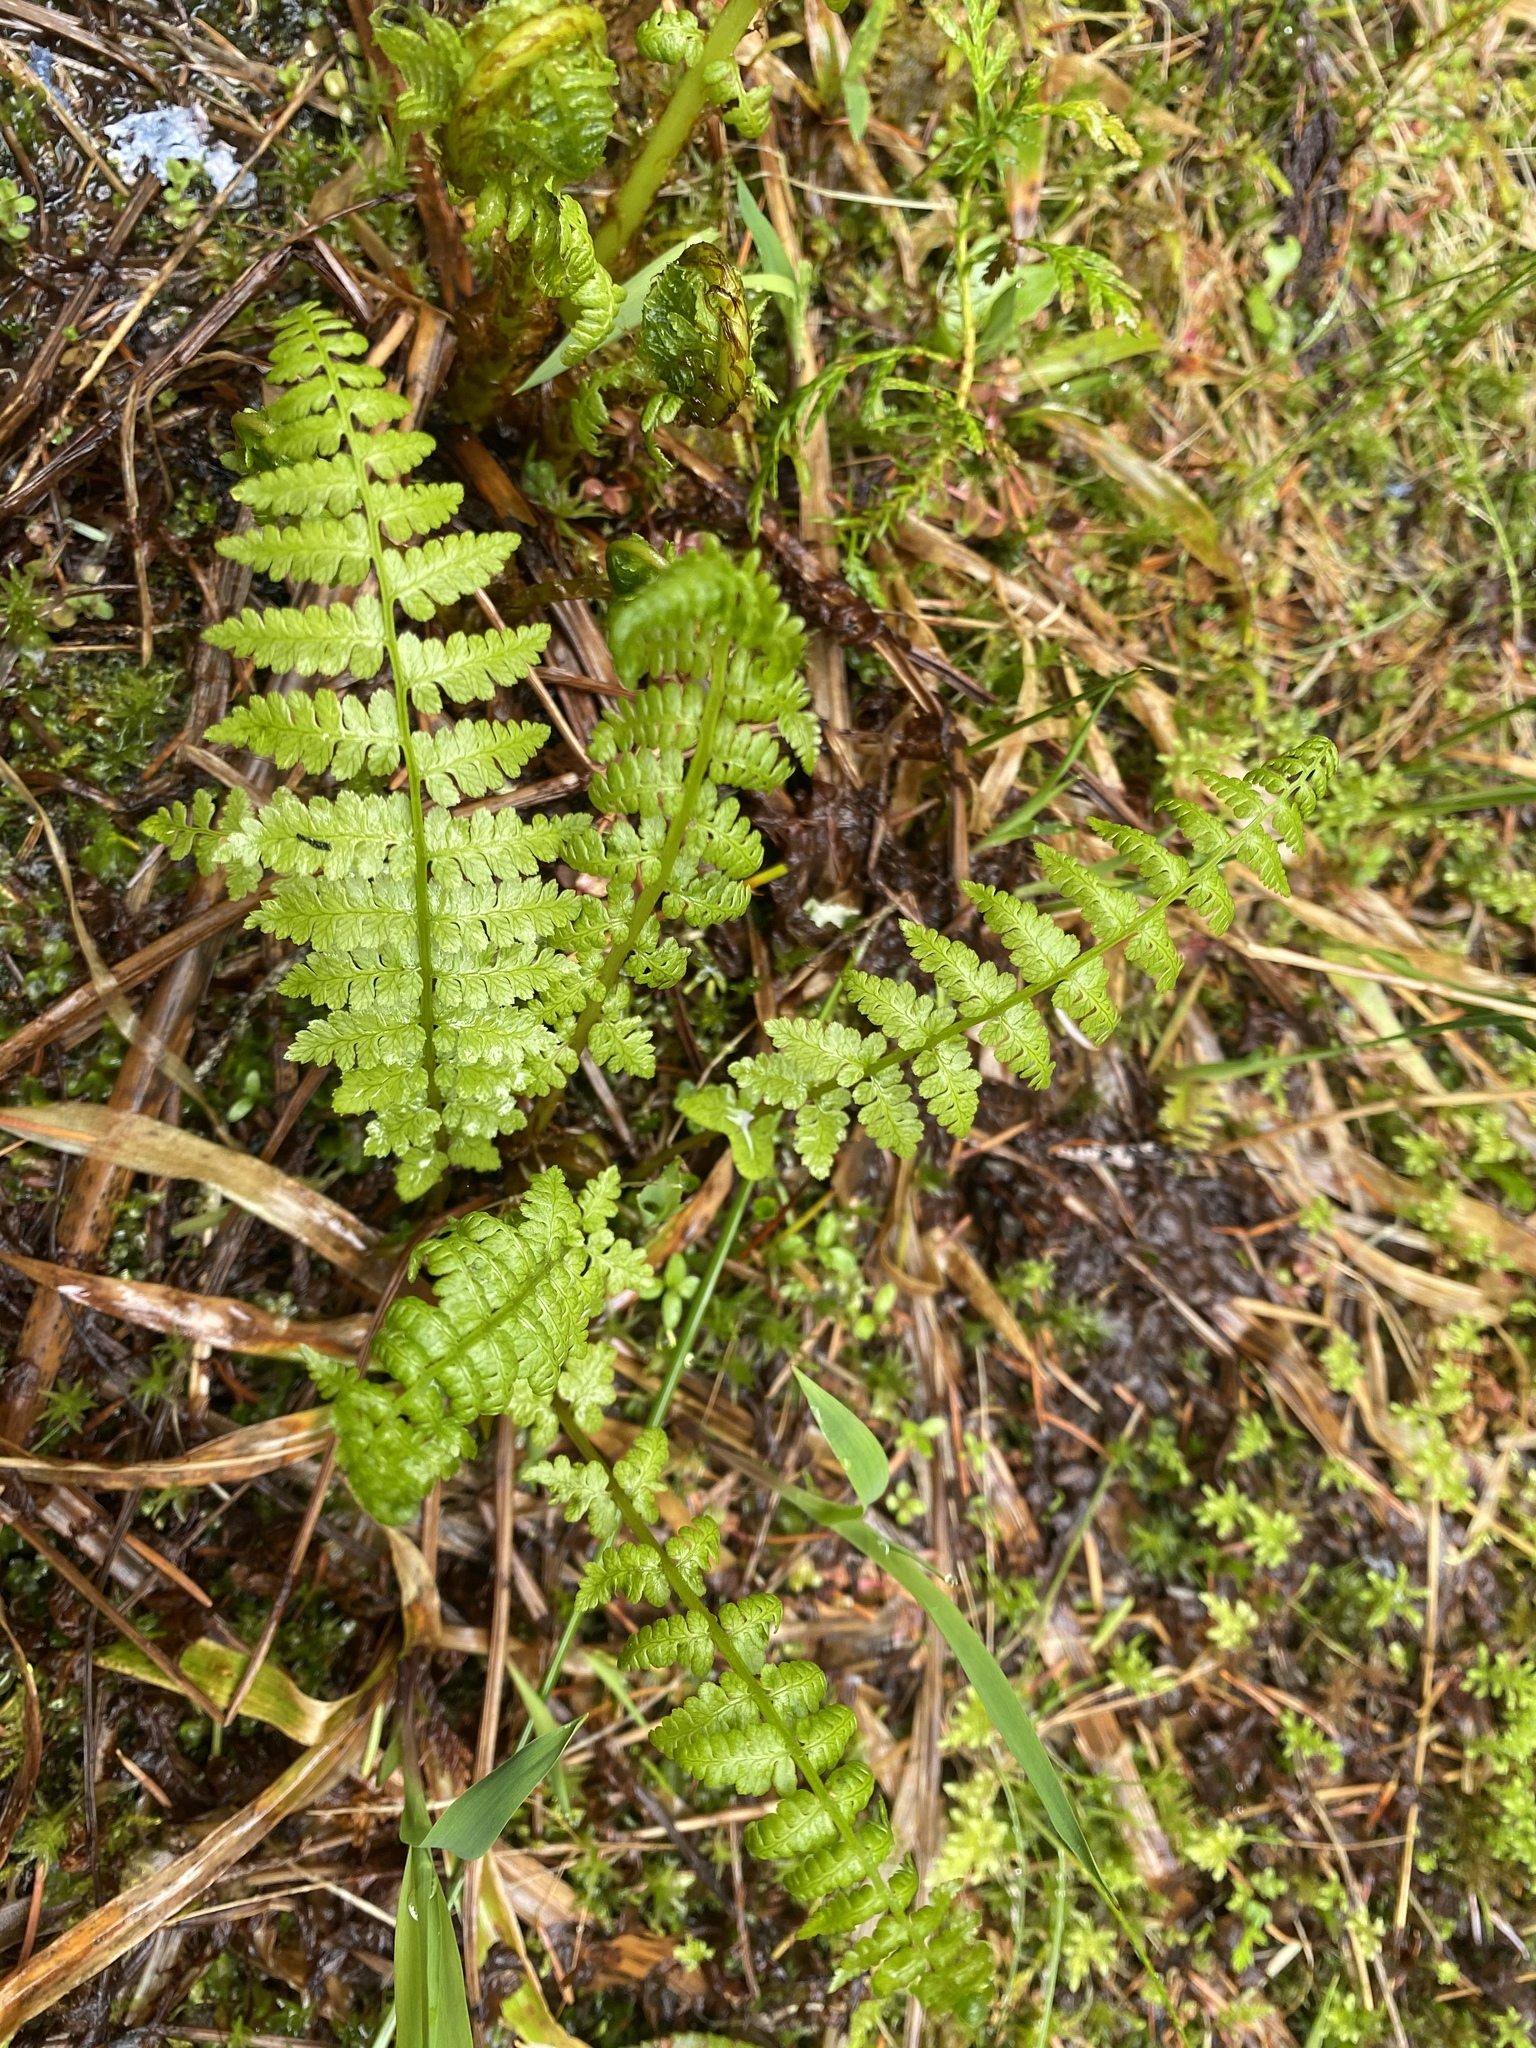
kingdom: Plantae
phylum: Tracheophyta
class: Polypodiopsida
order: Polypodiales
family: Athyriaceae
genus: Athyrium
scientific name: Athyrium filix-femina
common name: Lady fern
